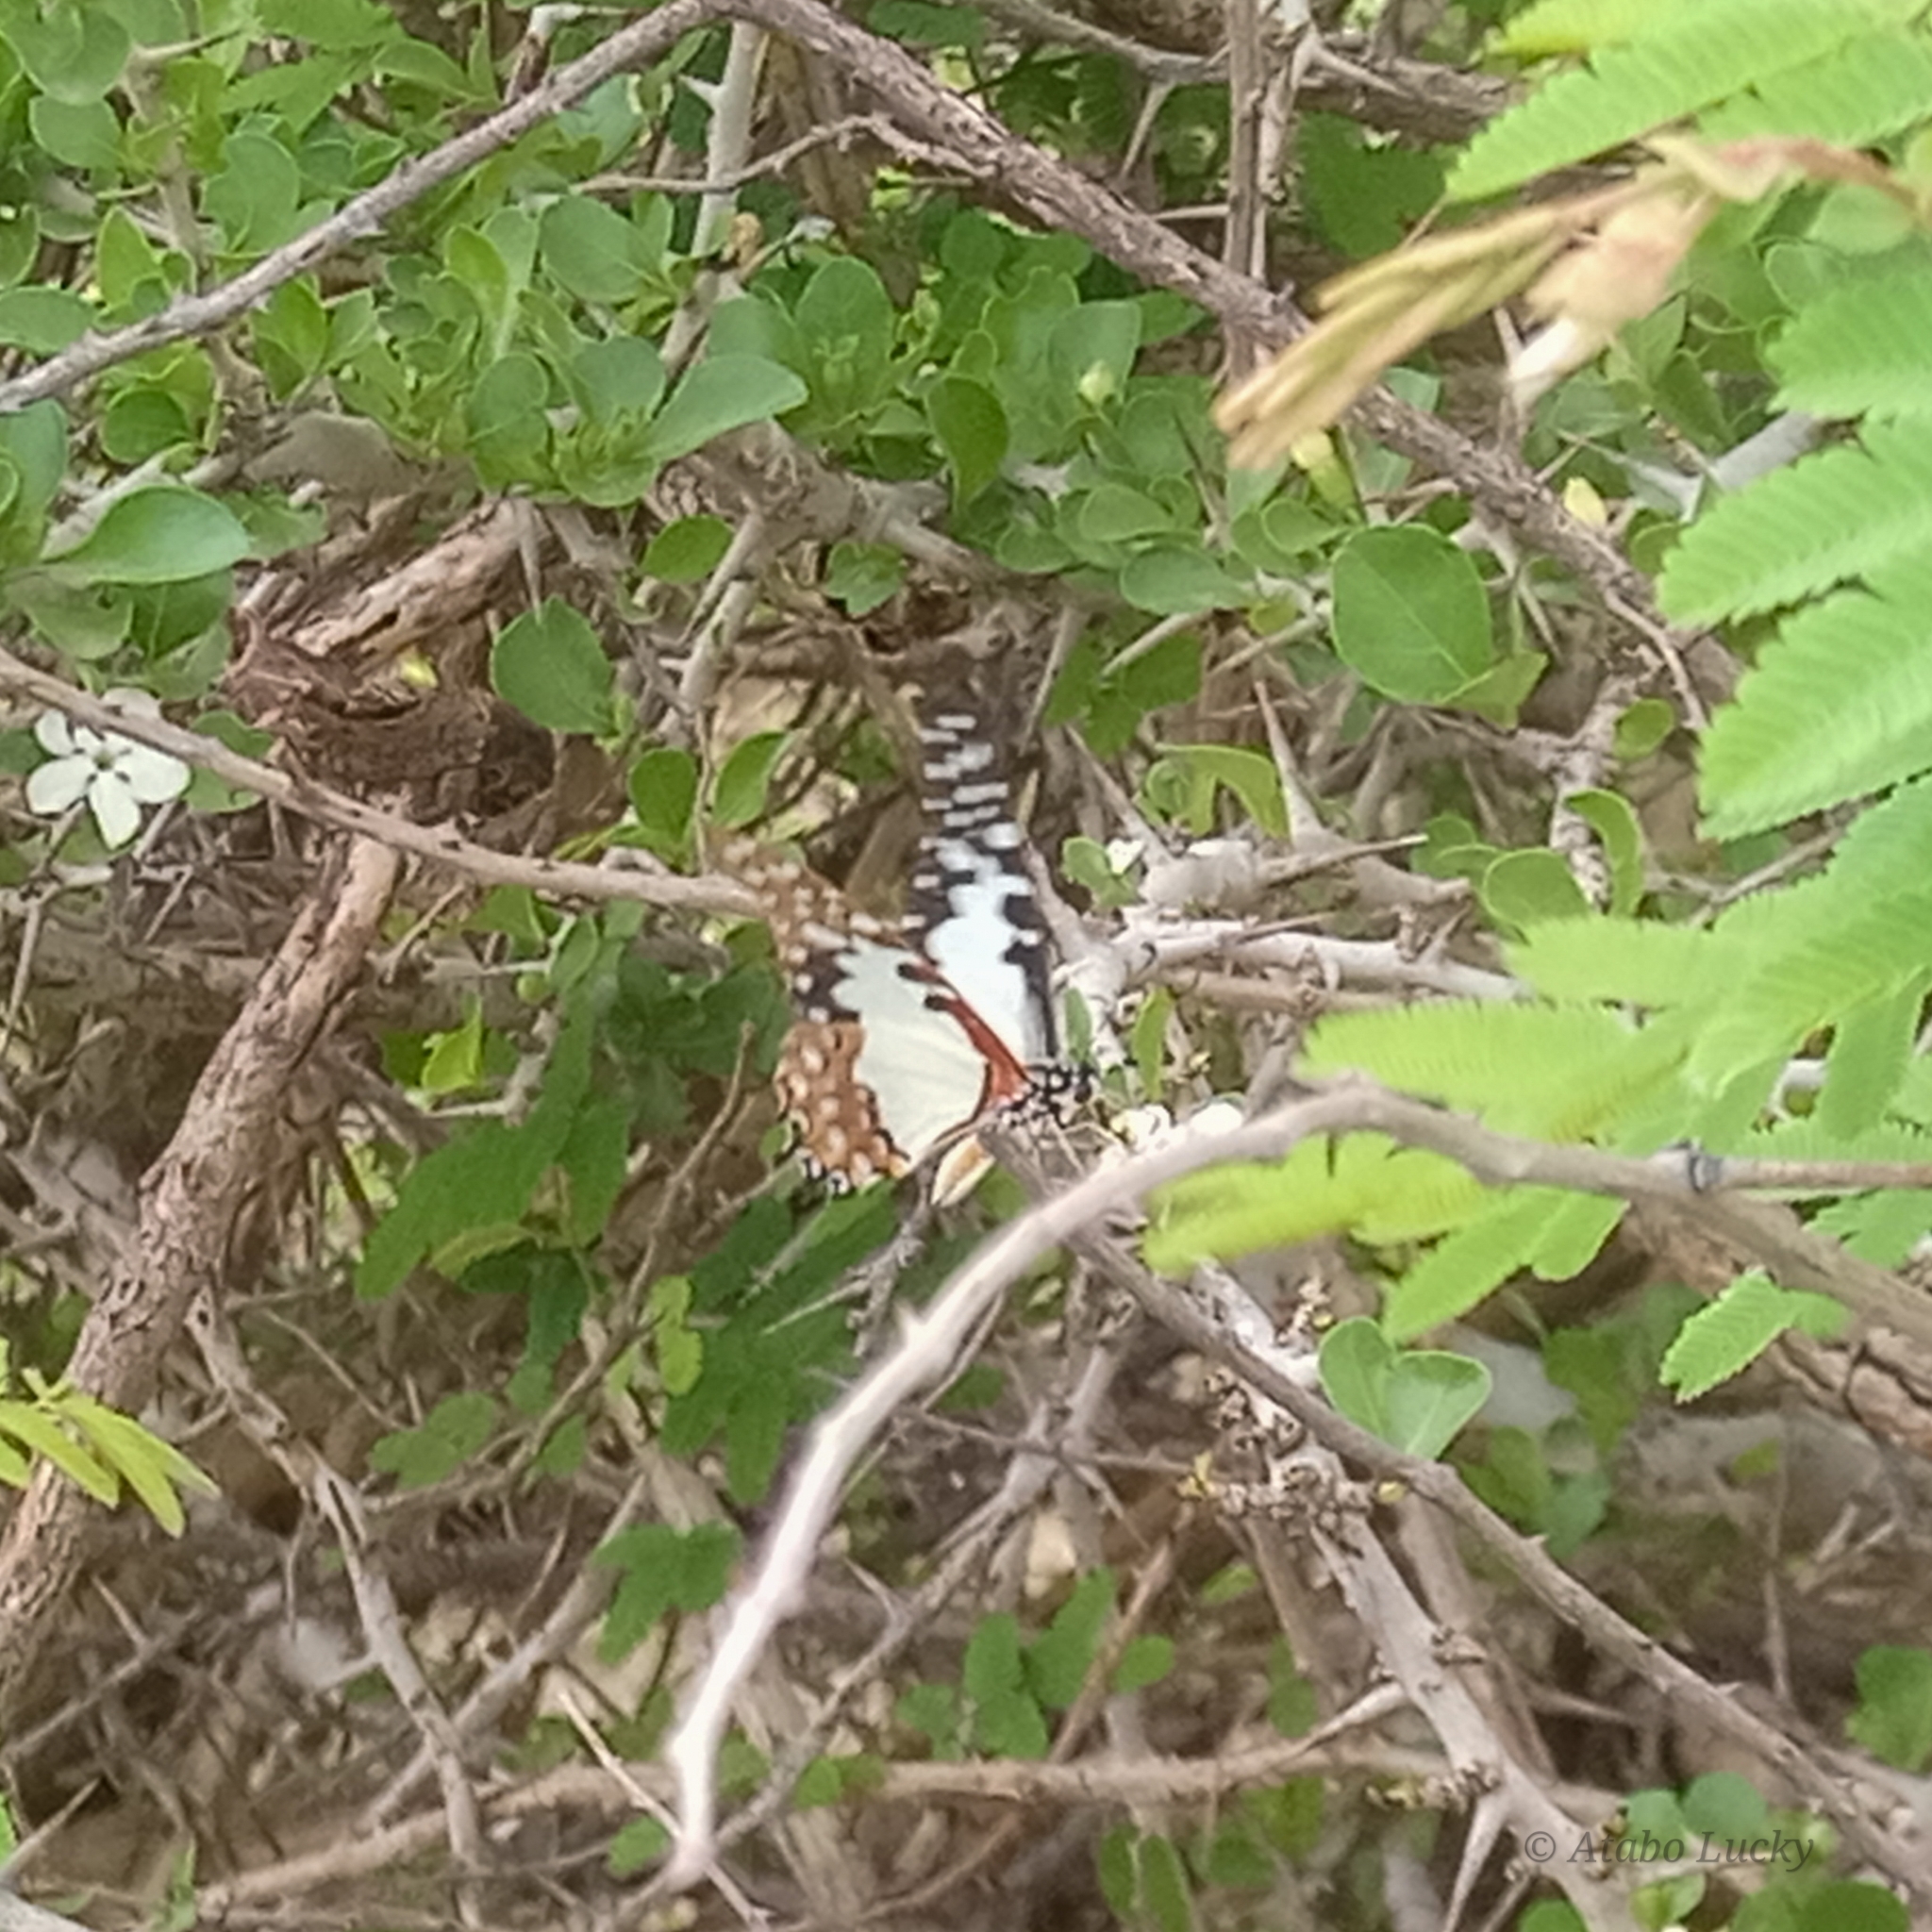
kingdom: Animalia
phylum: Arthropoda
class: Insecta
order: Lepidoptera
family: Papilionidae
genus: Graphium
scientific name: Graphium angolanus
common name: Angola white-lady swordtail
